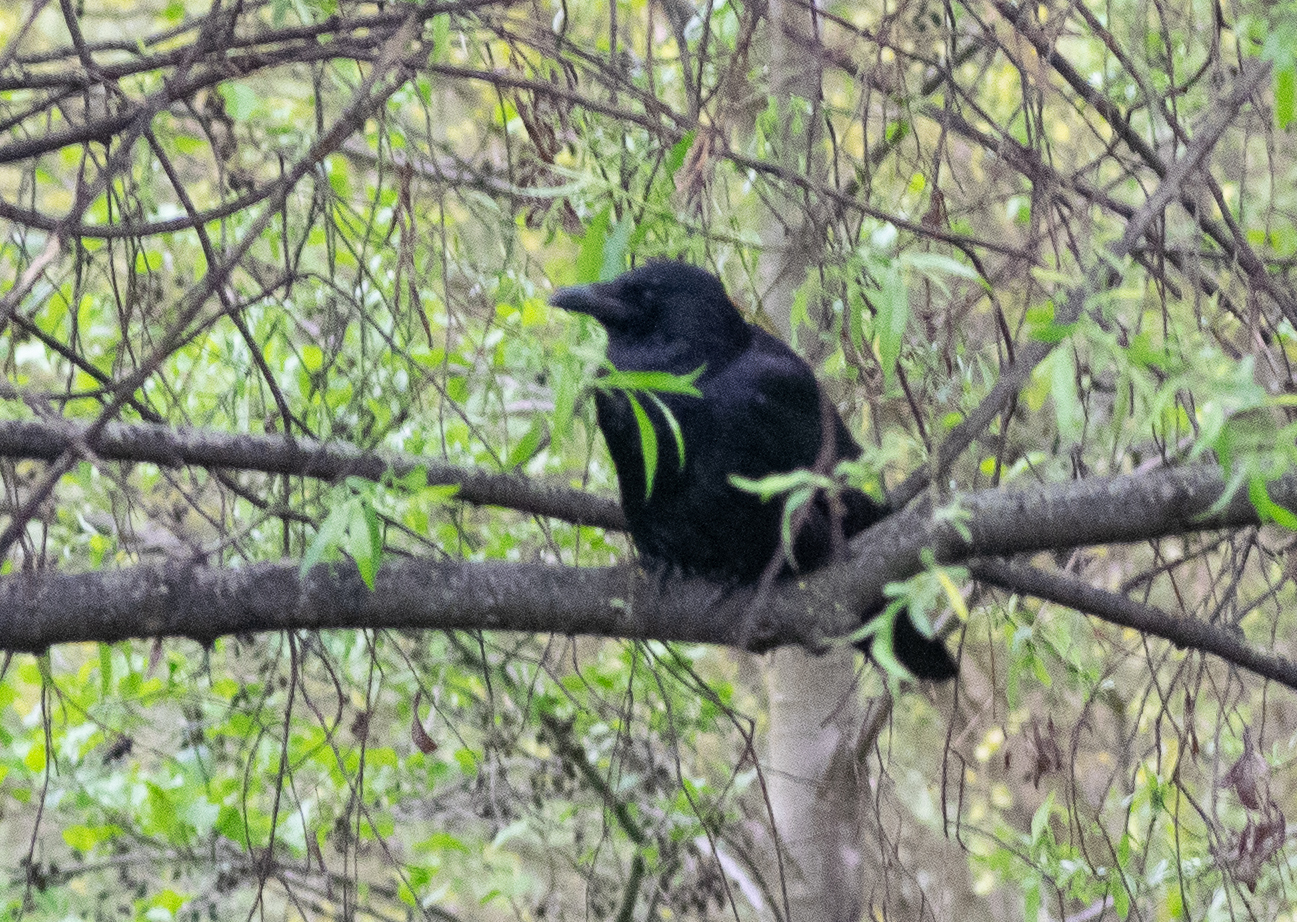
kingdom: Animalia
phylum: Chordata
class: Aves
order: Passeriformes
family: Corvidae
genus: Corvus
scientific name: Corvus corone
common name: Carrion crow
